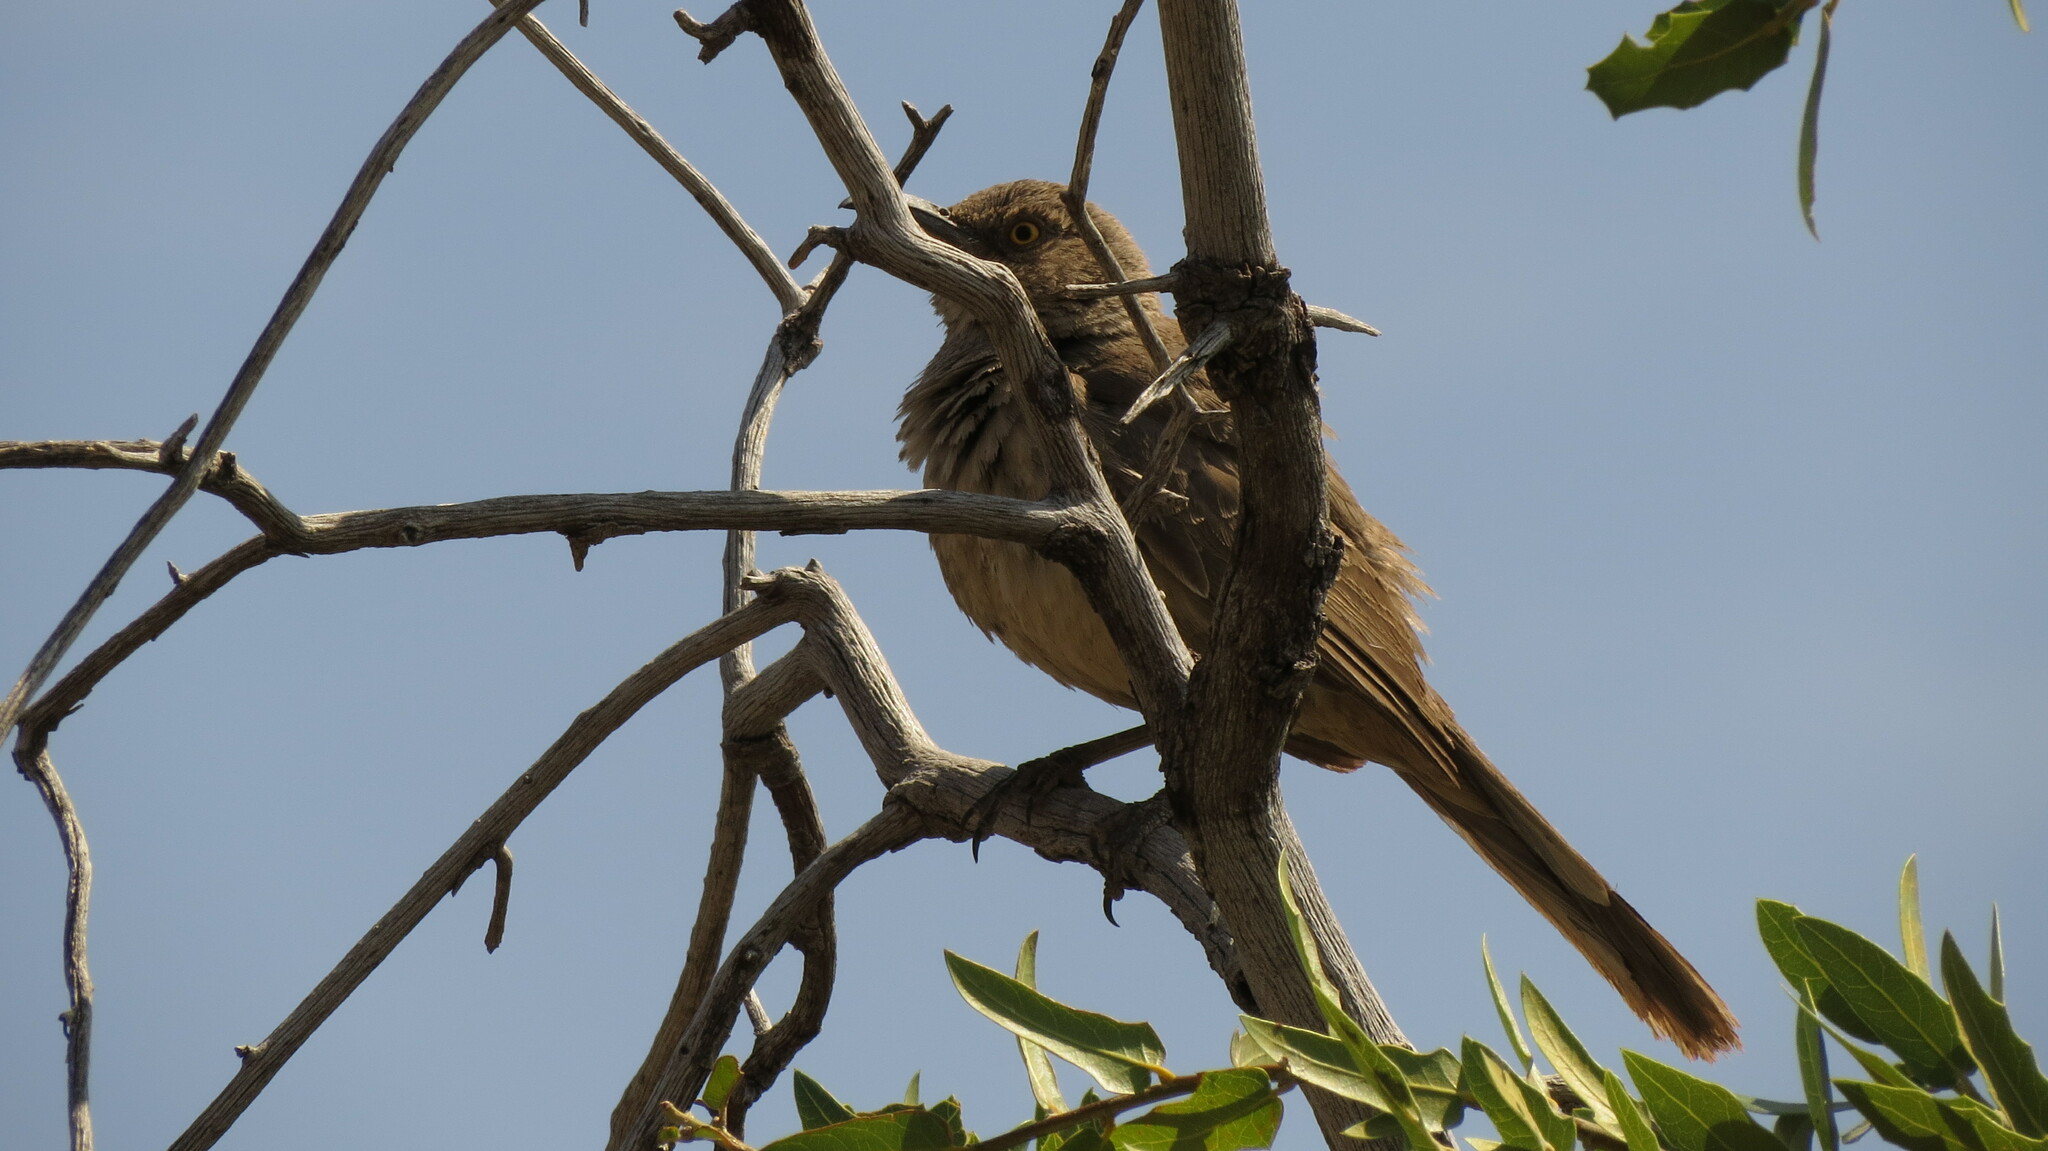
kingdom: Animalia
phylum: Chordata
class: Aves
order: Passeriformes
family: Mimidae
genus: Toxostoma
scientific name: Toxostoma curvirostre
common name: Curve-billed thrasher
